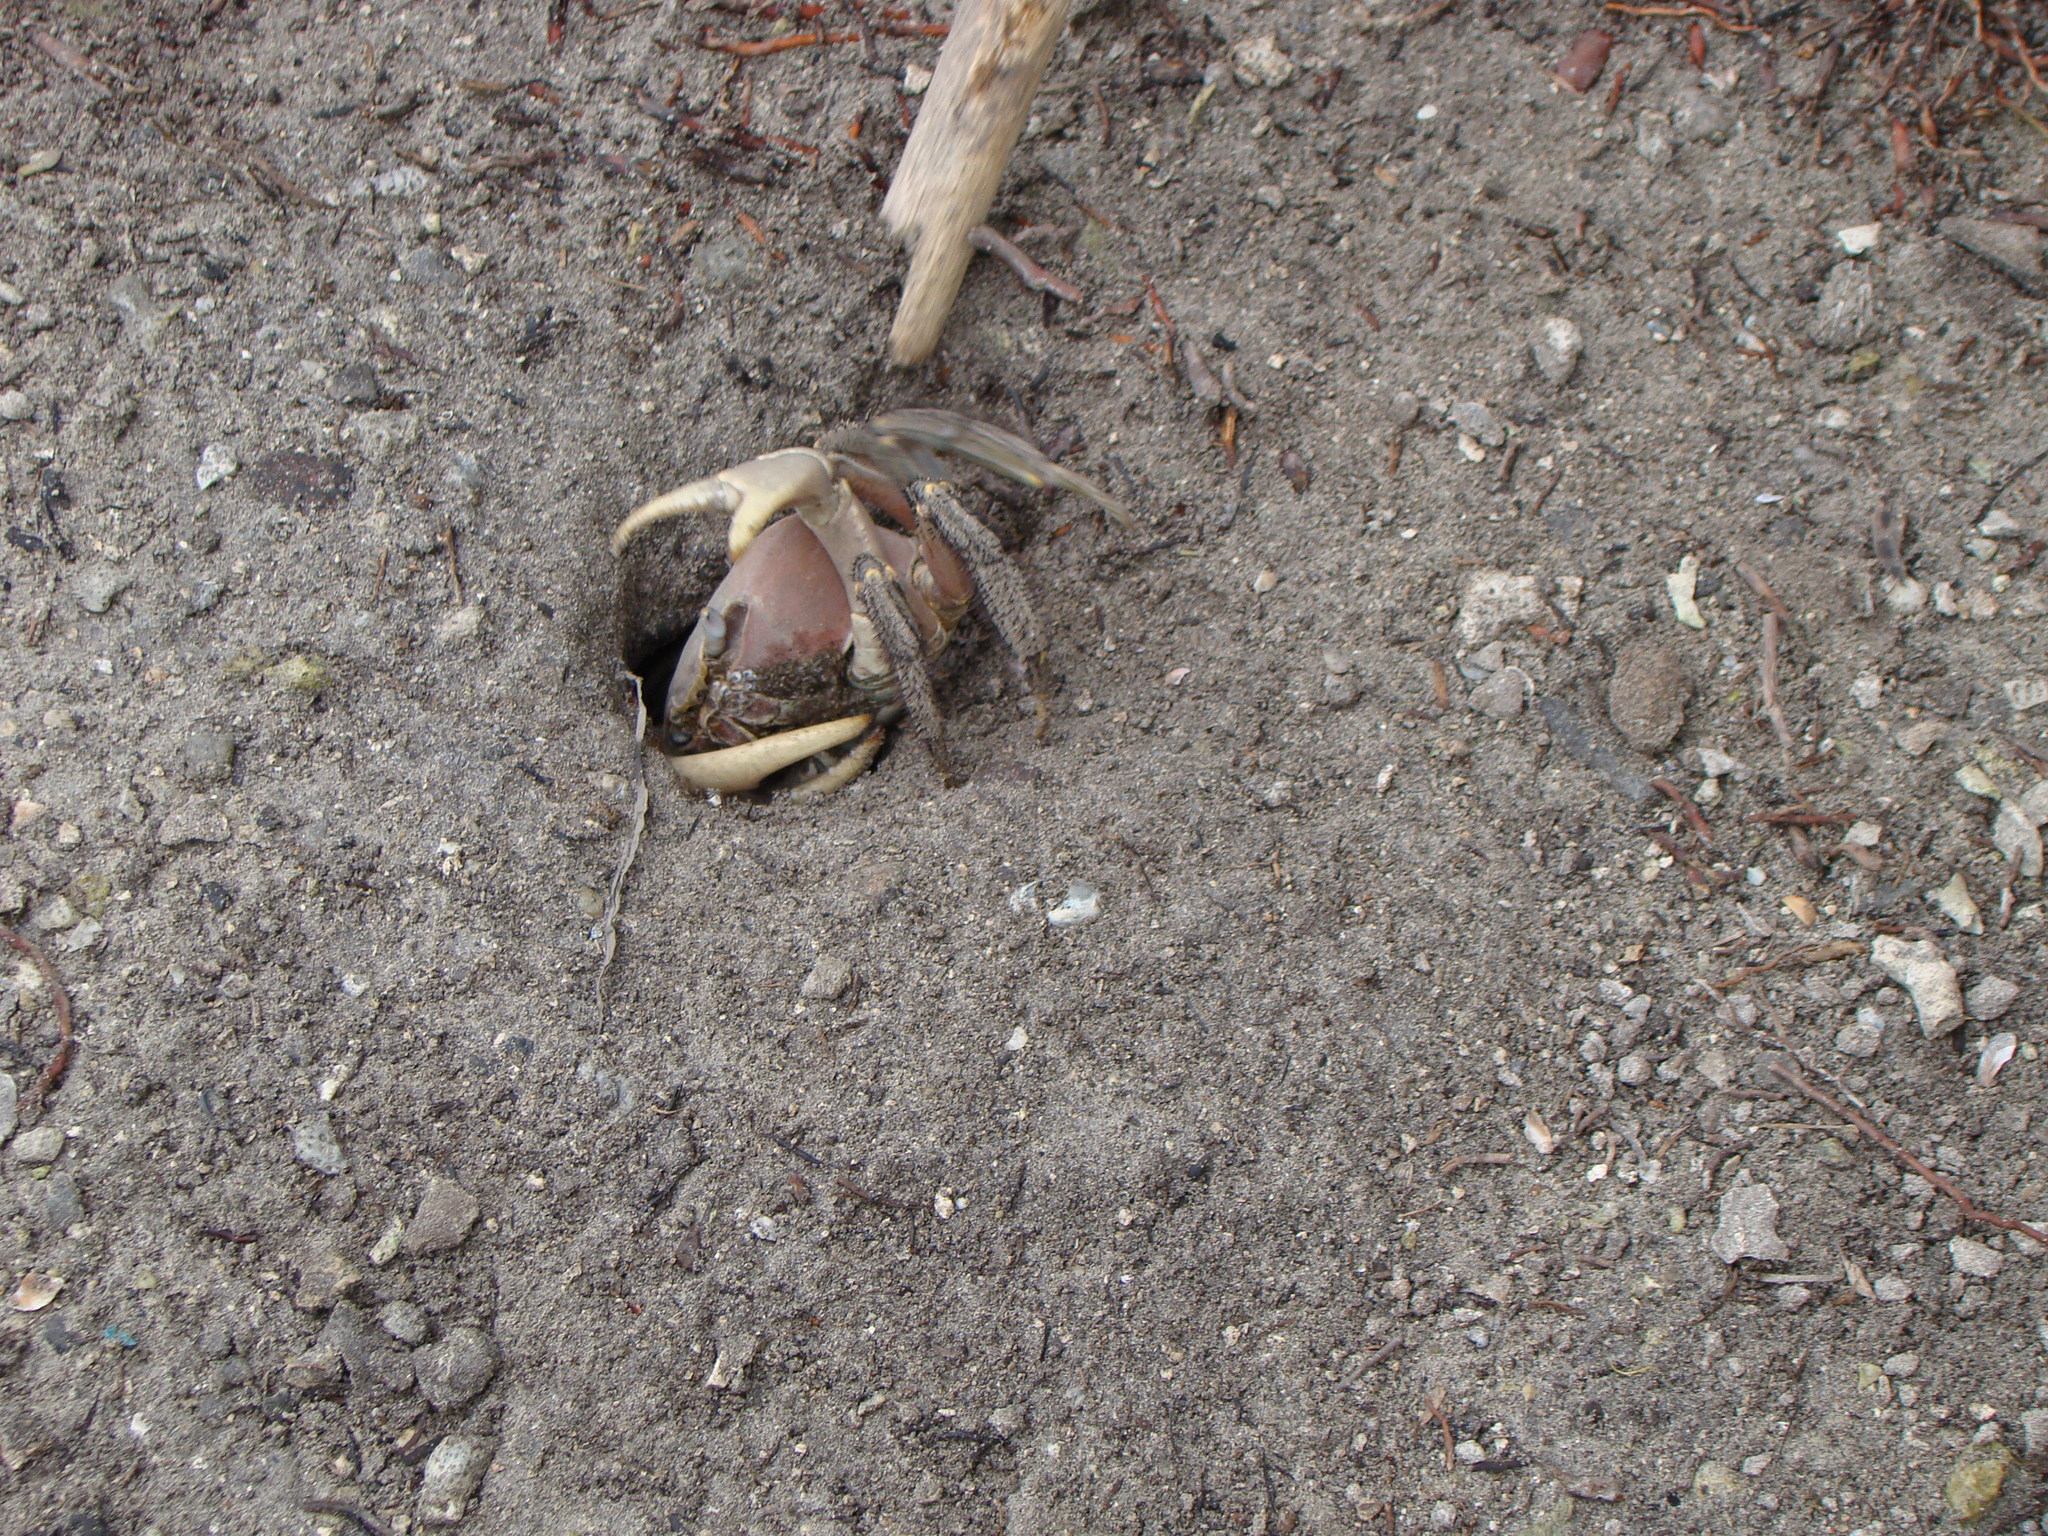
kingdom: Animalia
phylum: Arthropoda
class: Malacostraca
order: Decapoda
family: Gecarcinidae
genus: Cardisoma
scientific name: Cardisoma carnifex
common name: Brown land crab
